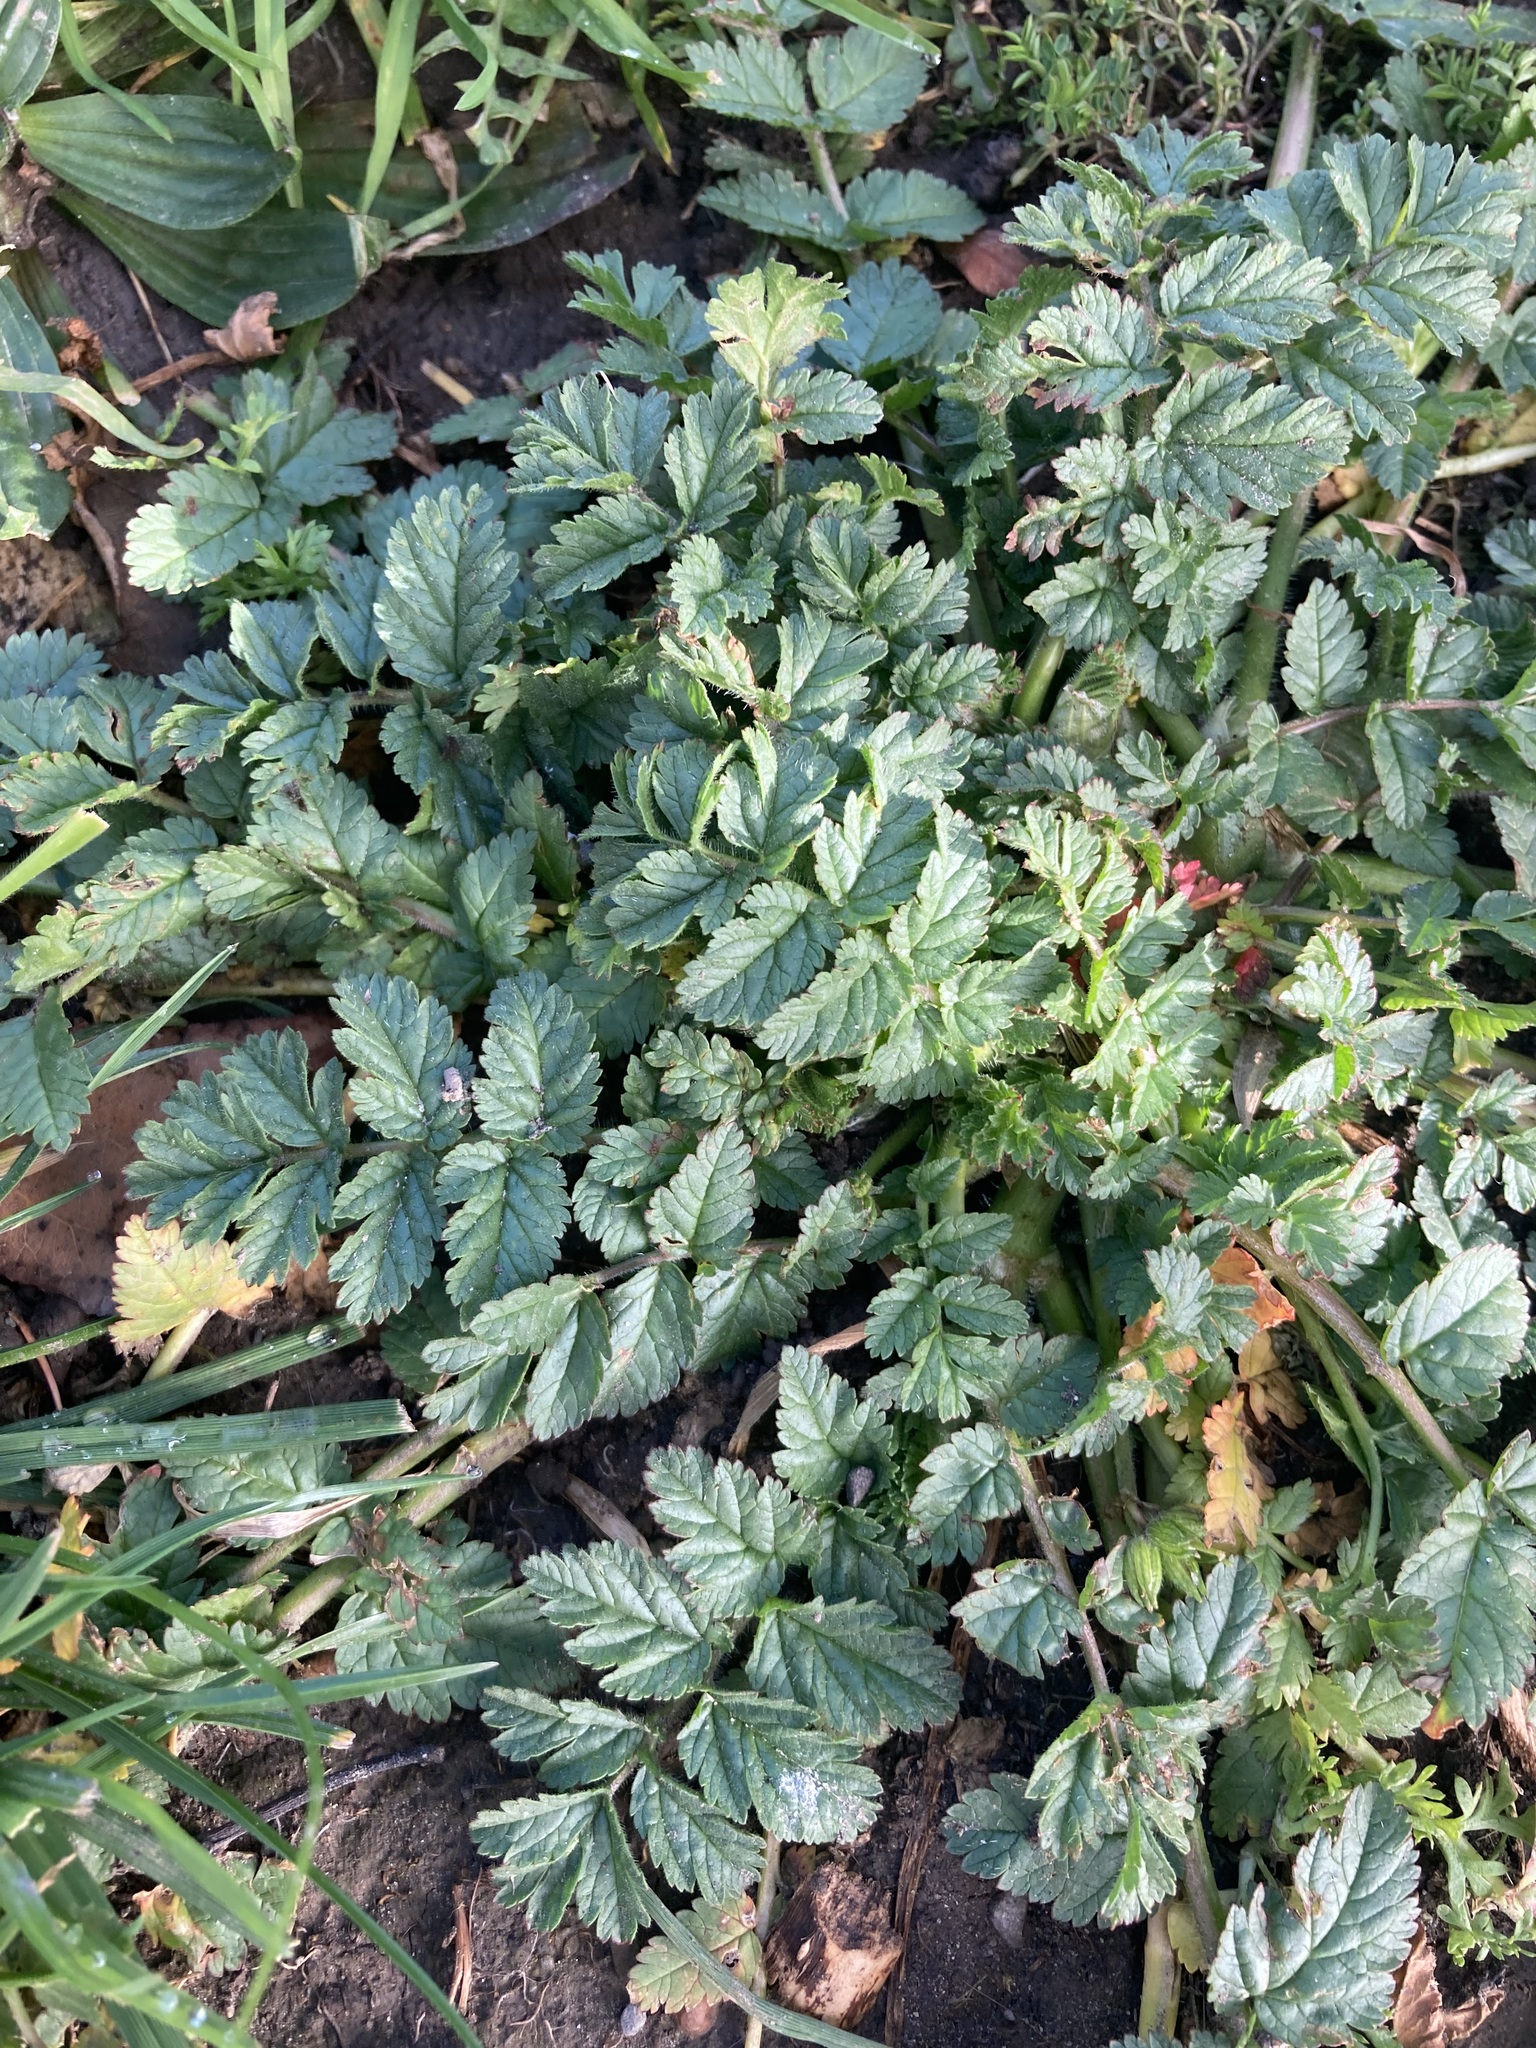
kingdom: Plantae
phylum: Tracheophyta
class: Magnoliopsida
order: Geraniales
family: Geraniaceae
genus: Erodium
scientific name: Erodium moschatum
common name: Musk stork's-bill
